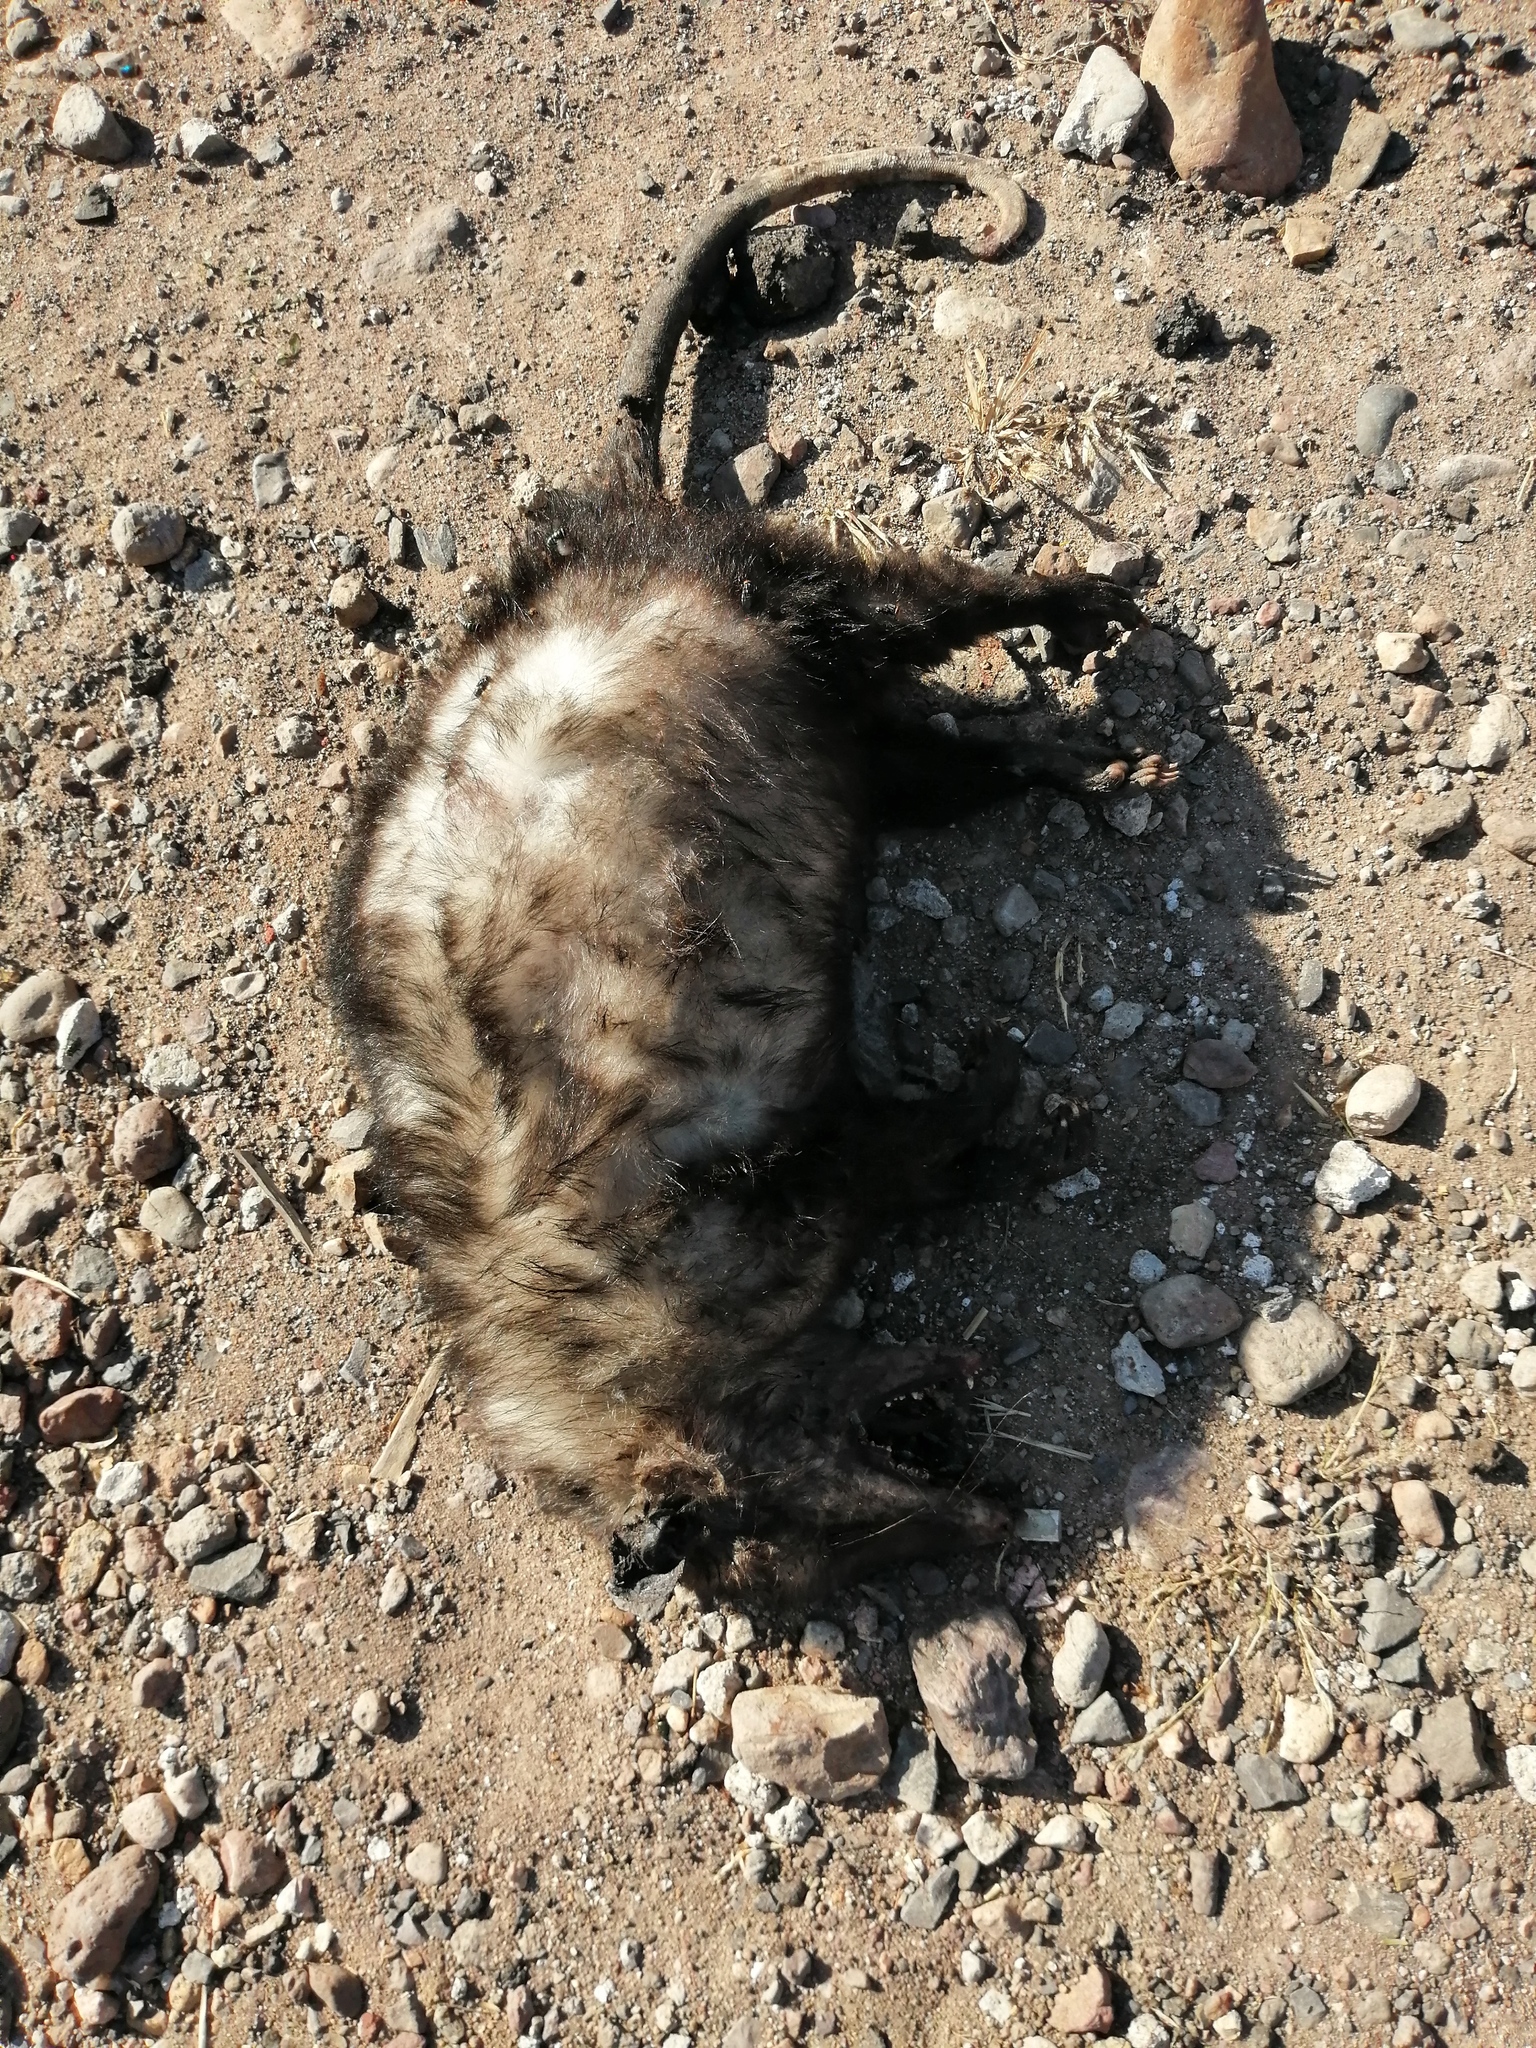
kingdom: Animalia
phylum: Chordata
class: Mammalia
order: Didelphimorphia
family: Didelphidae
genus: Didelphis
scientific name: Didelphis virginiana
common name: Virginia opossum
